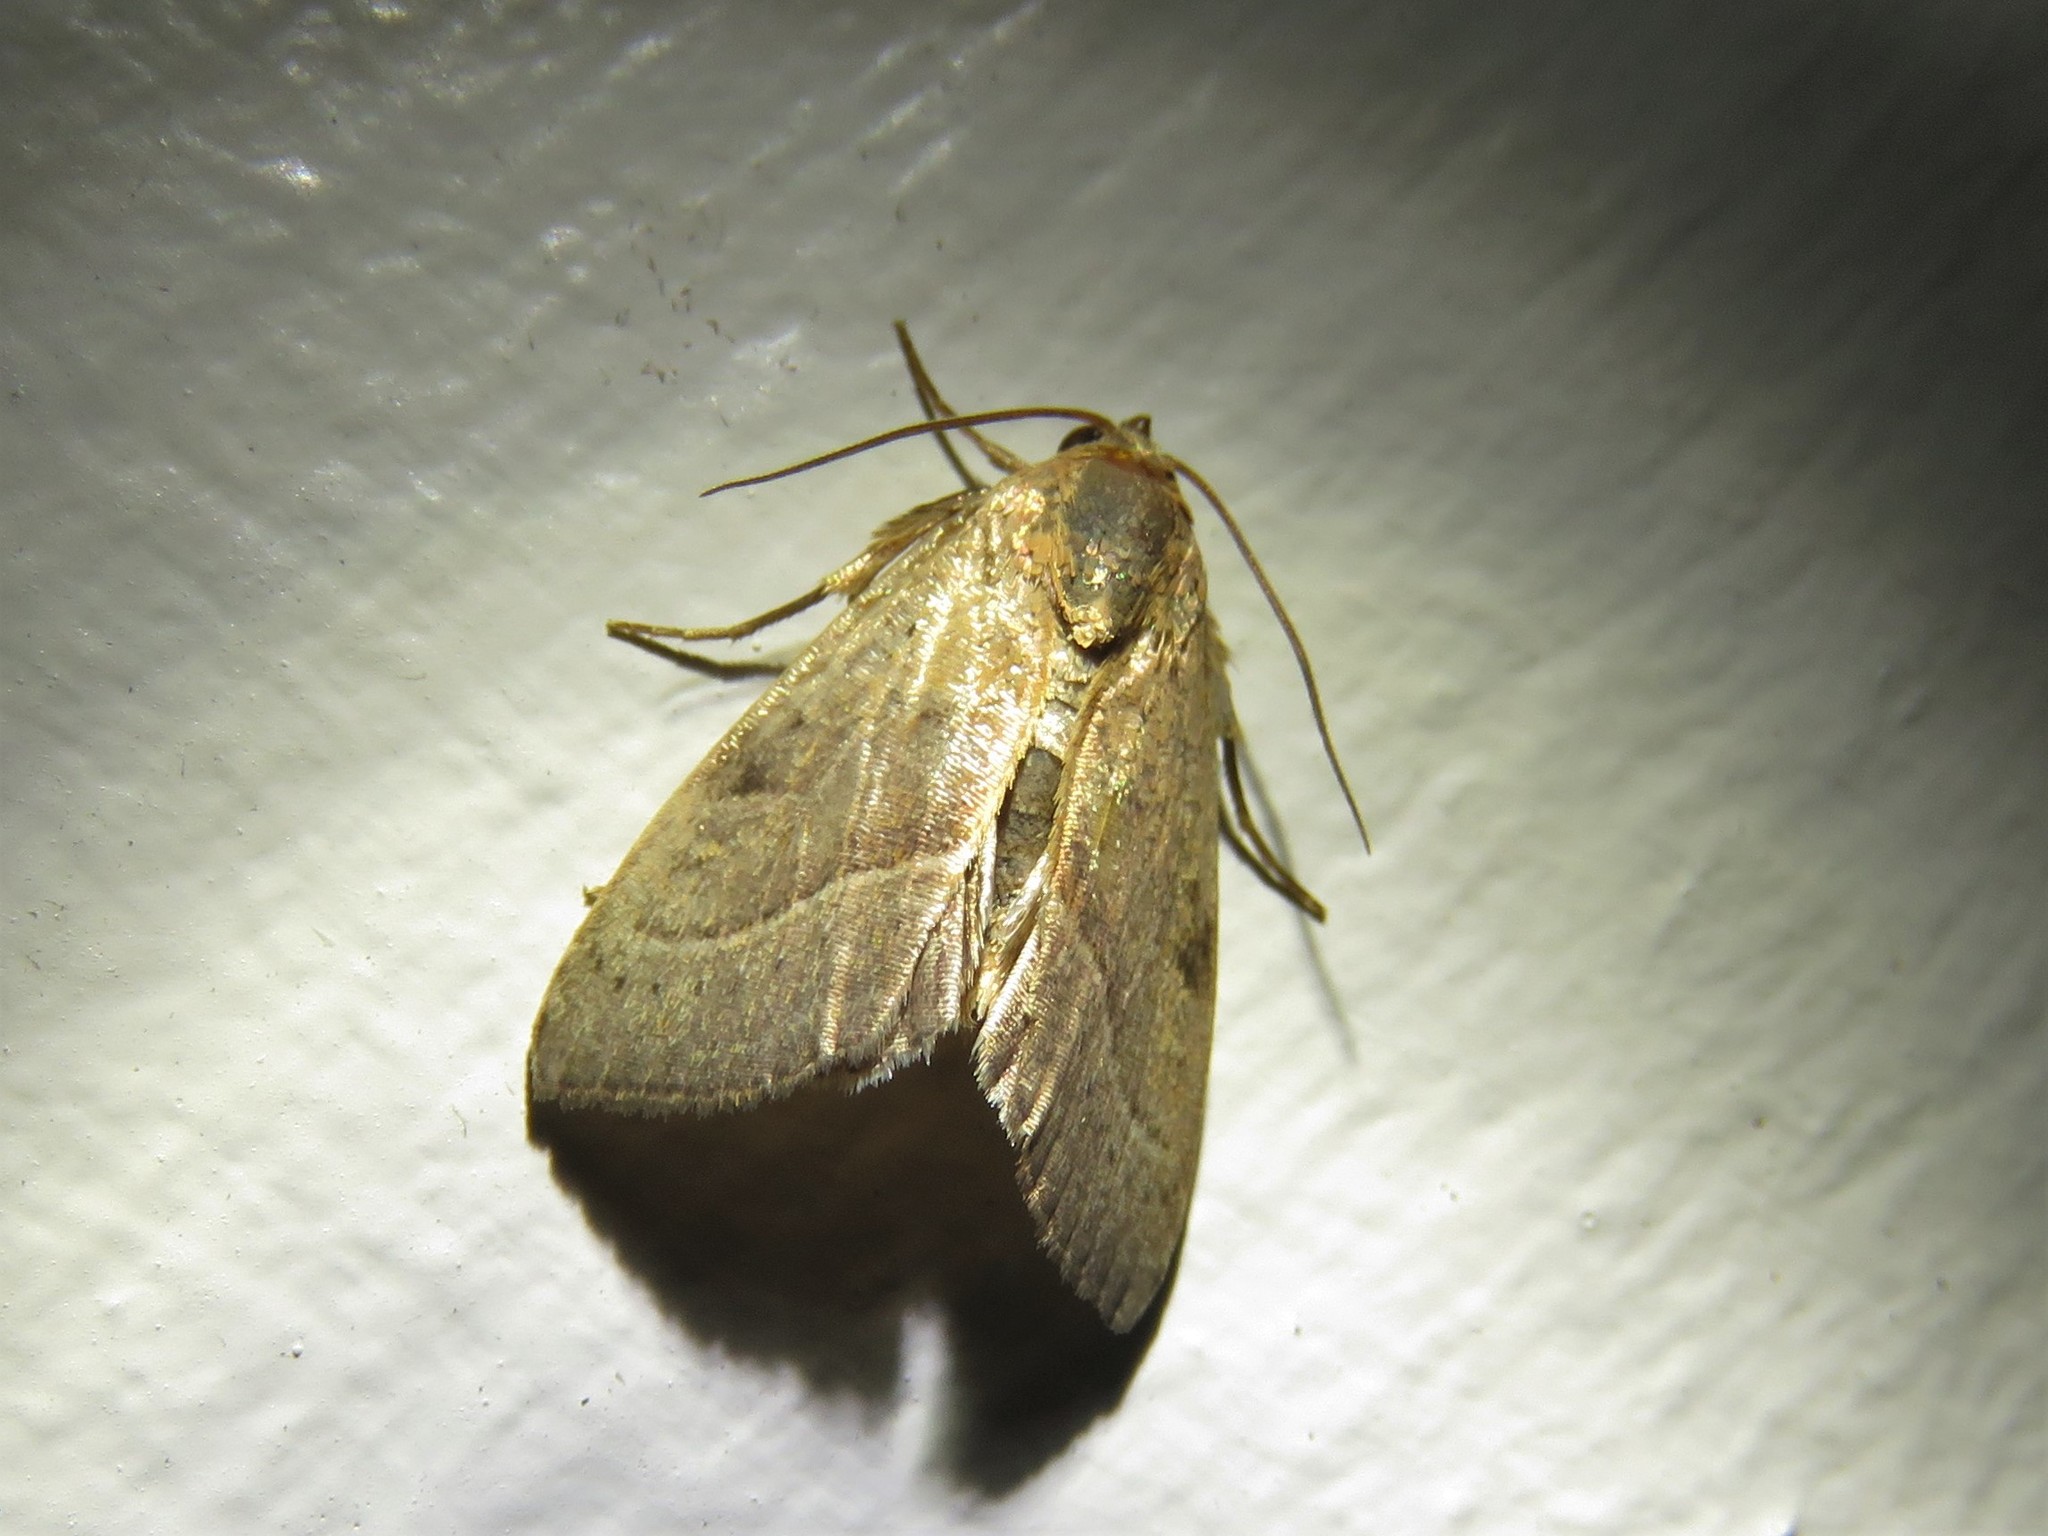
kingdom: Animalia
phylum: Arthropoda
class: Insecta
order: Lepidoptera
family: Noctuidae
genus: Galgula
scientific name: Galgula partita
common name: Wedgeling
